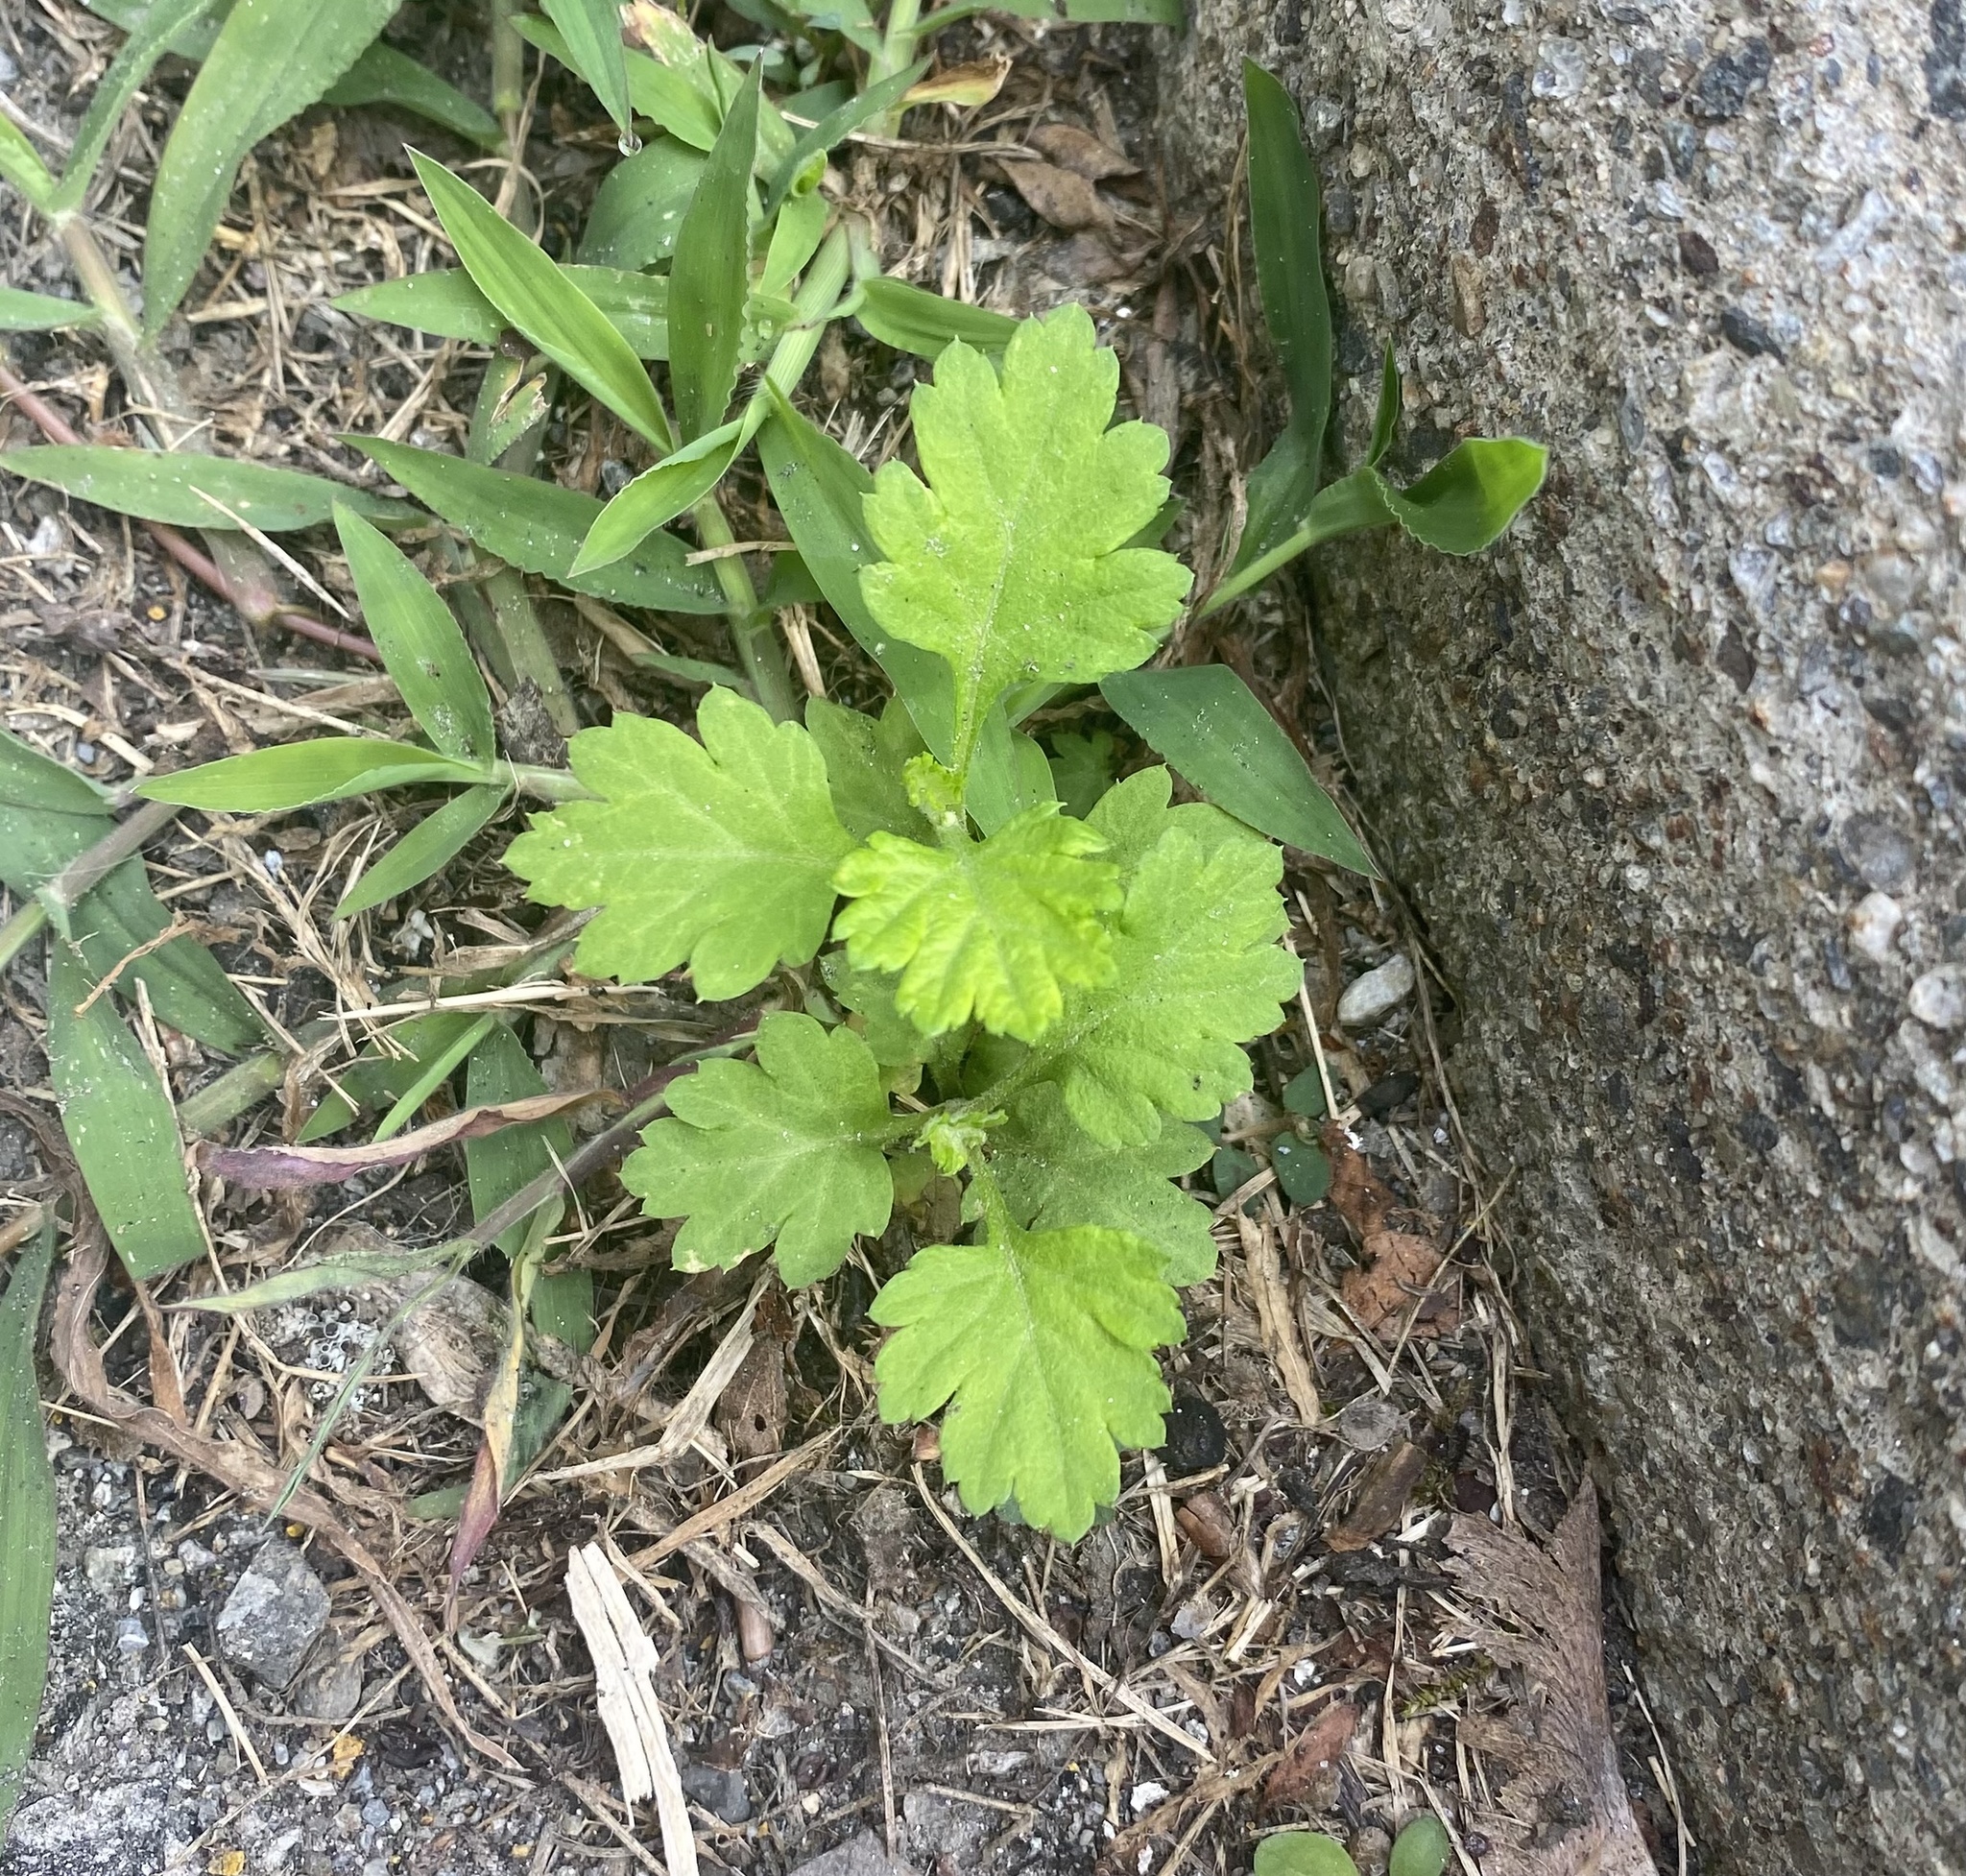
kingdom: Plantae
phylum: Tracheophyta
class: Magnoliopsida
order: Asterales
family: Asteraceae
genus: Artemisia
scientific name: Artemisia vulgaris
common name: Mugwort
